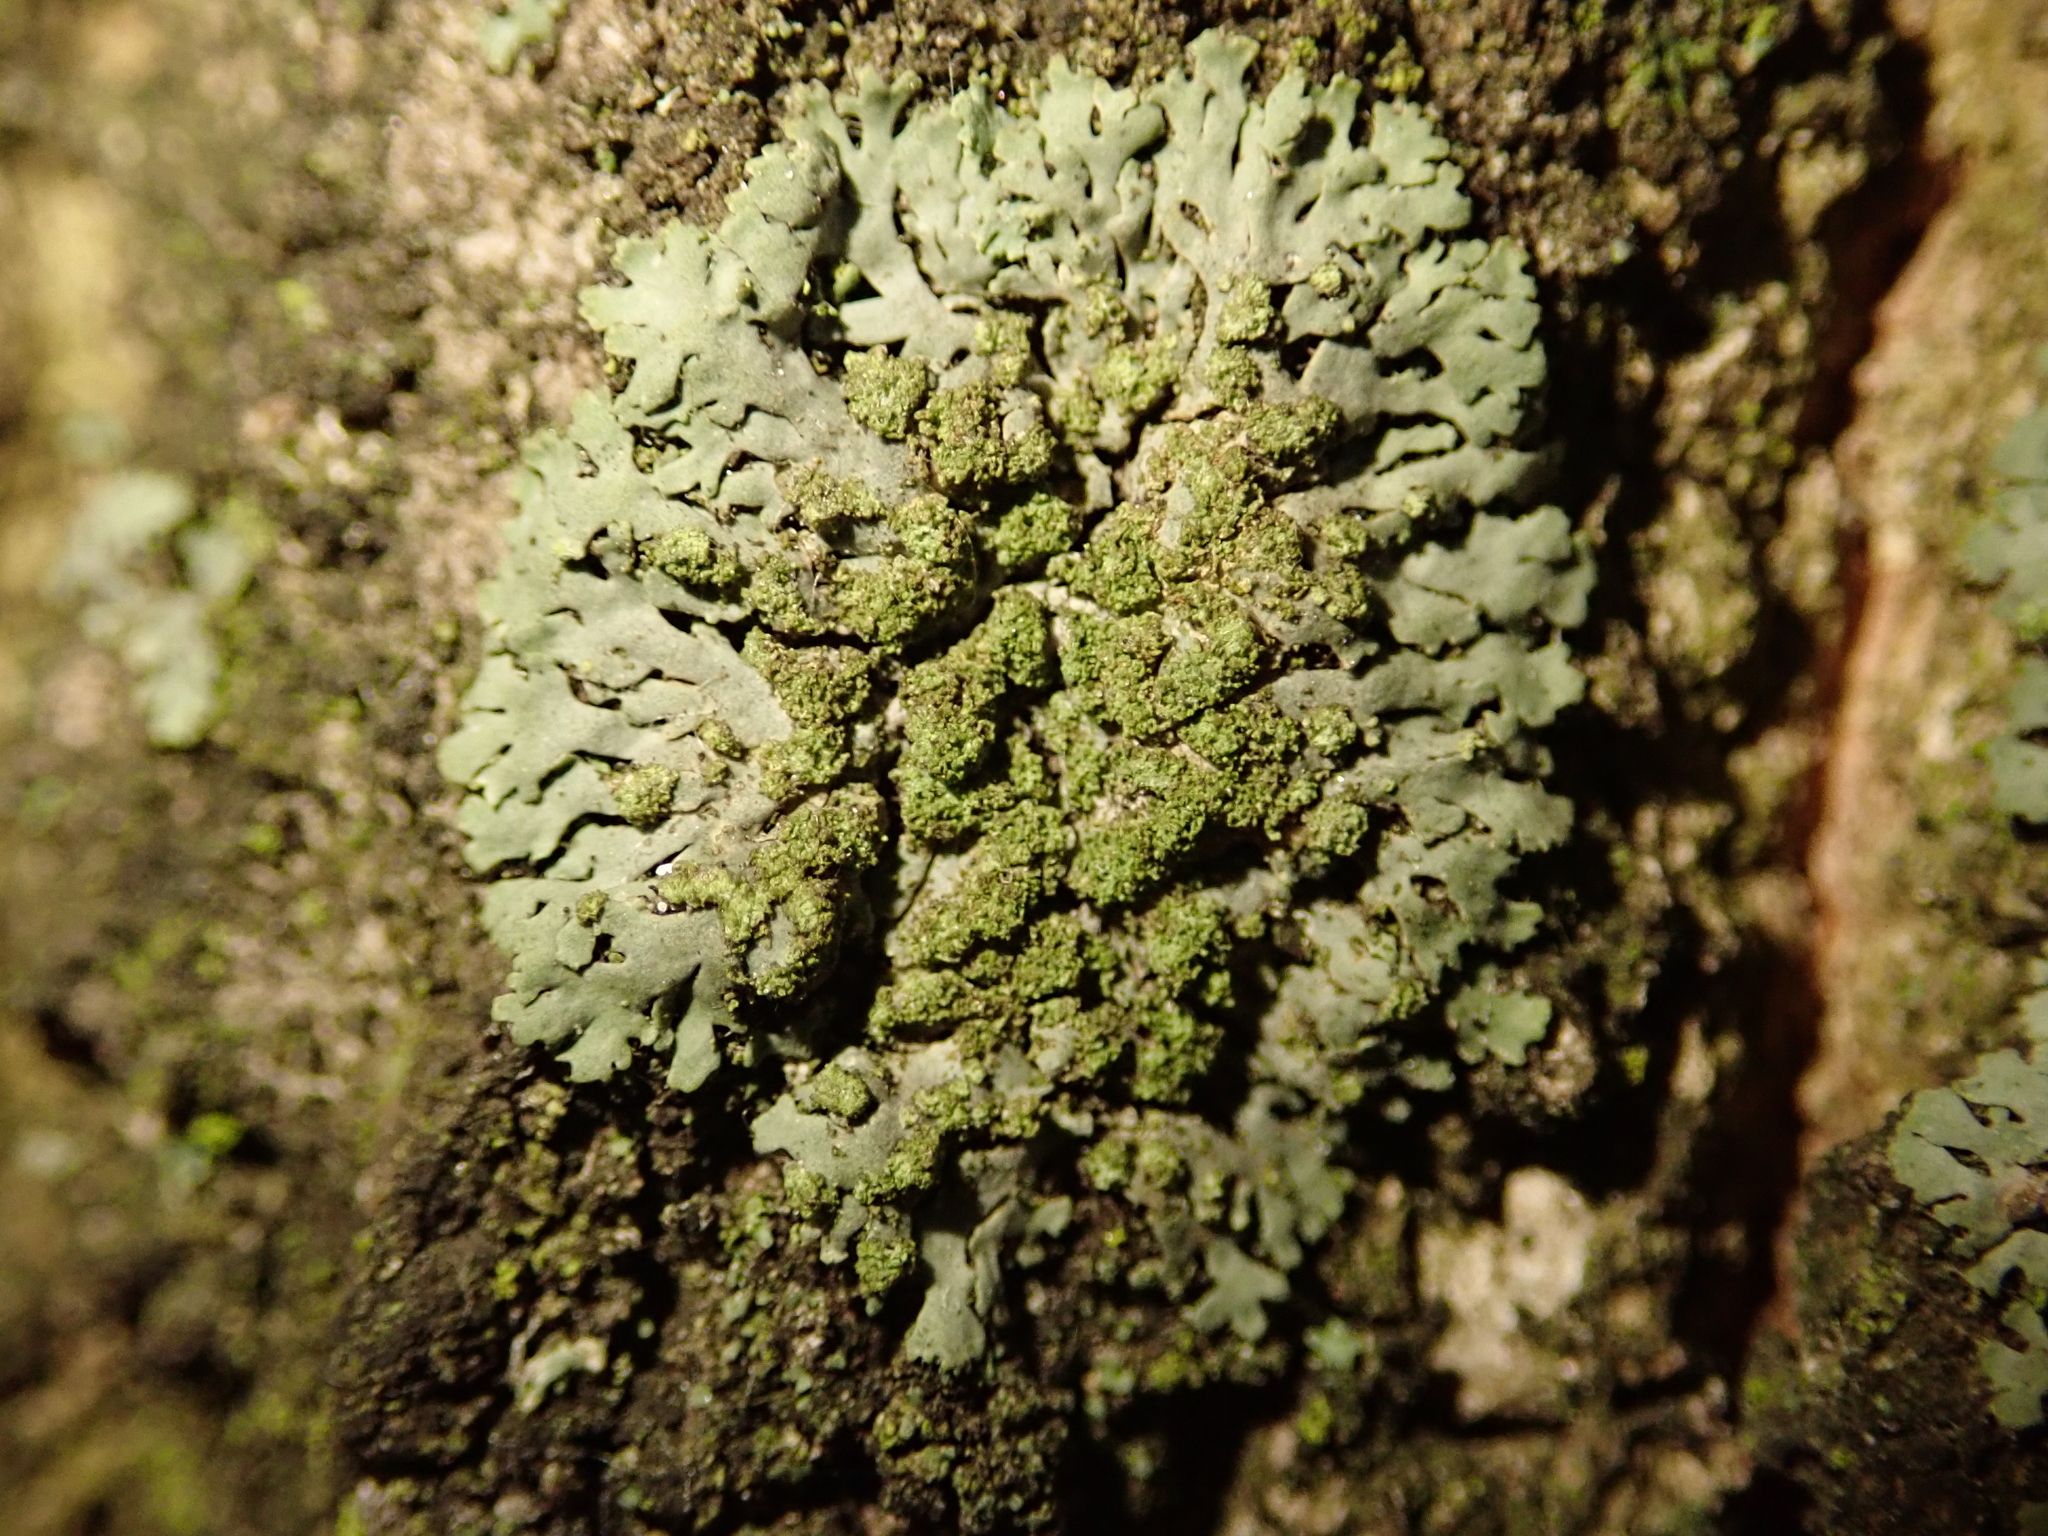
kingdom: Fungi
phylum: Ascomycota
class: Lecanoromycetes
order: Caliciales
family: Physciaceae
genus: Phaeophyscia
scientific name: Phaeophyscia orbicularis
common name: Mealy shadow lichen
